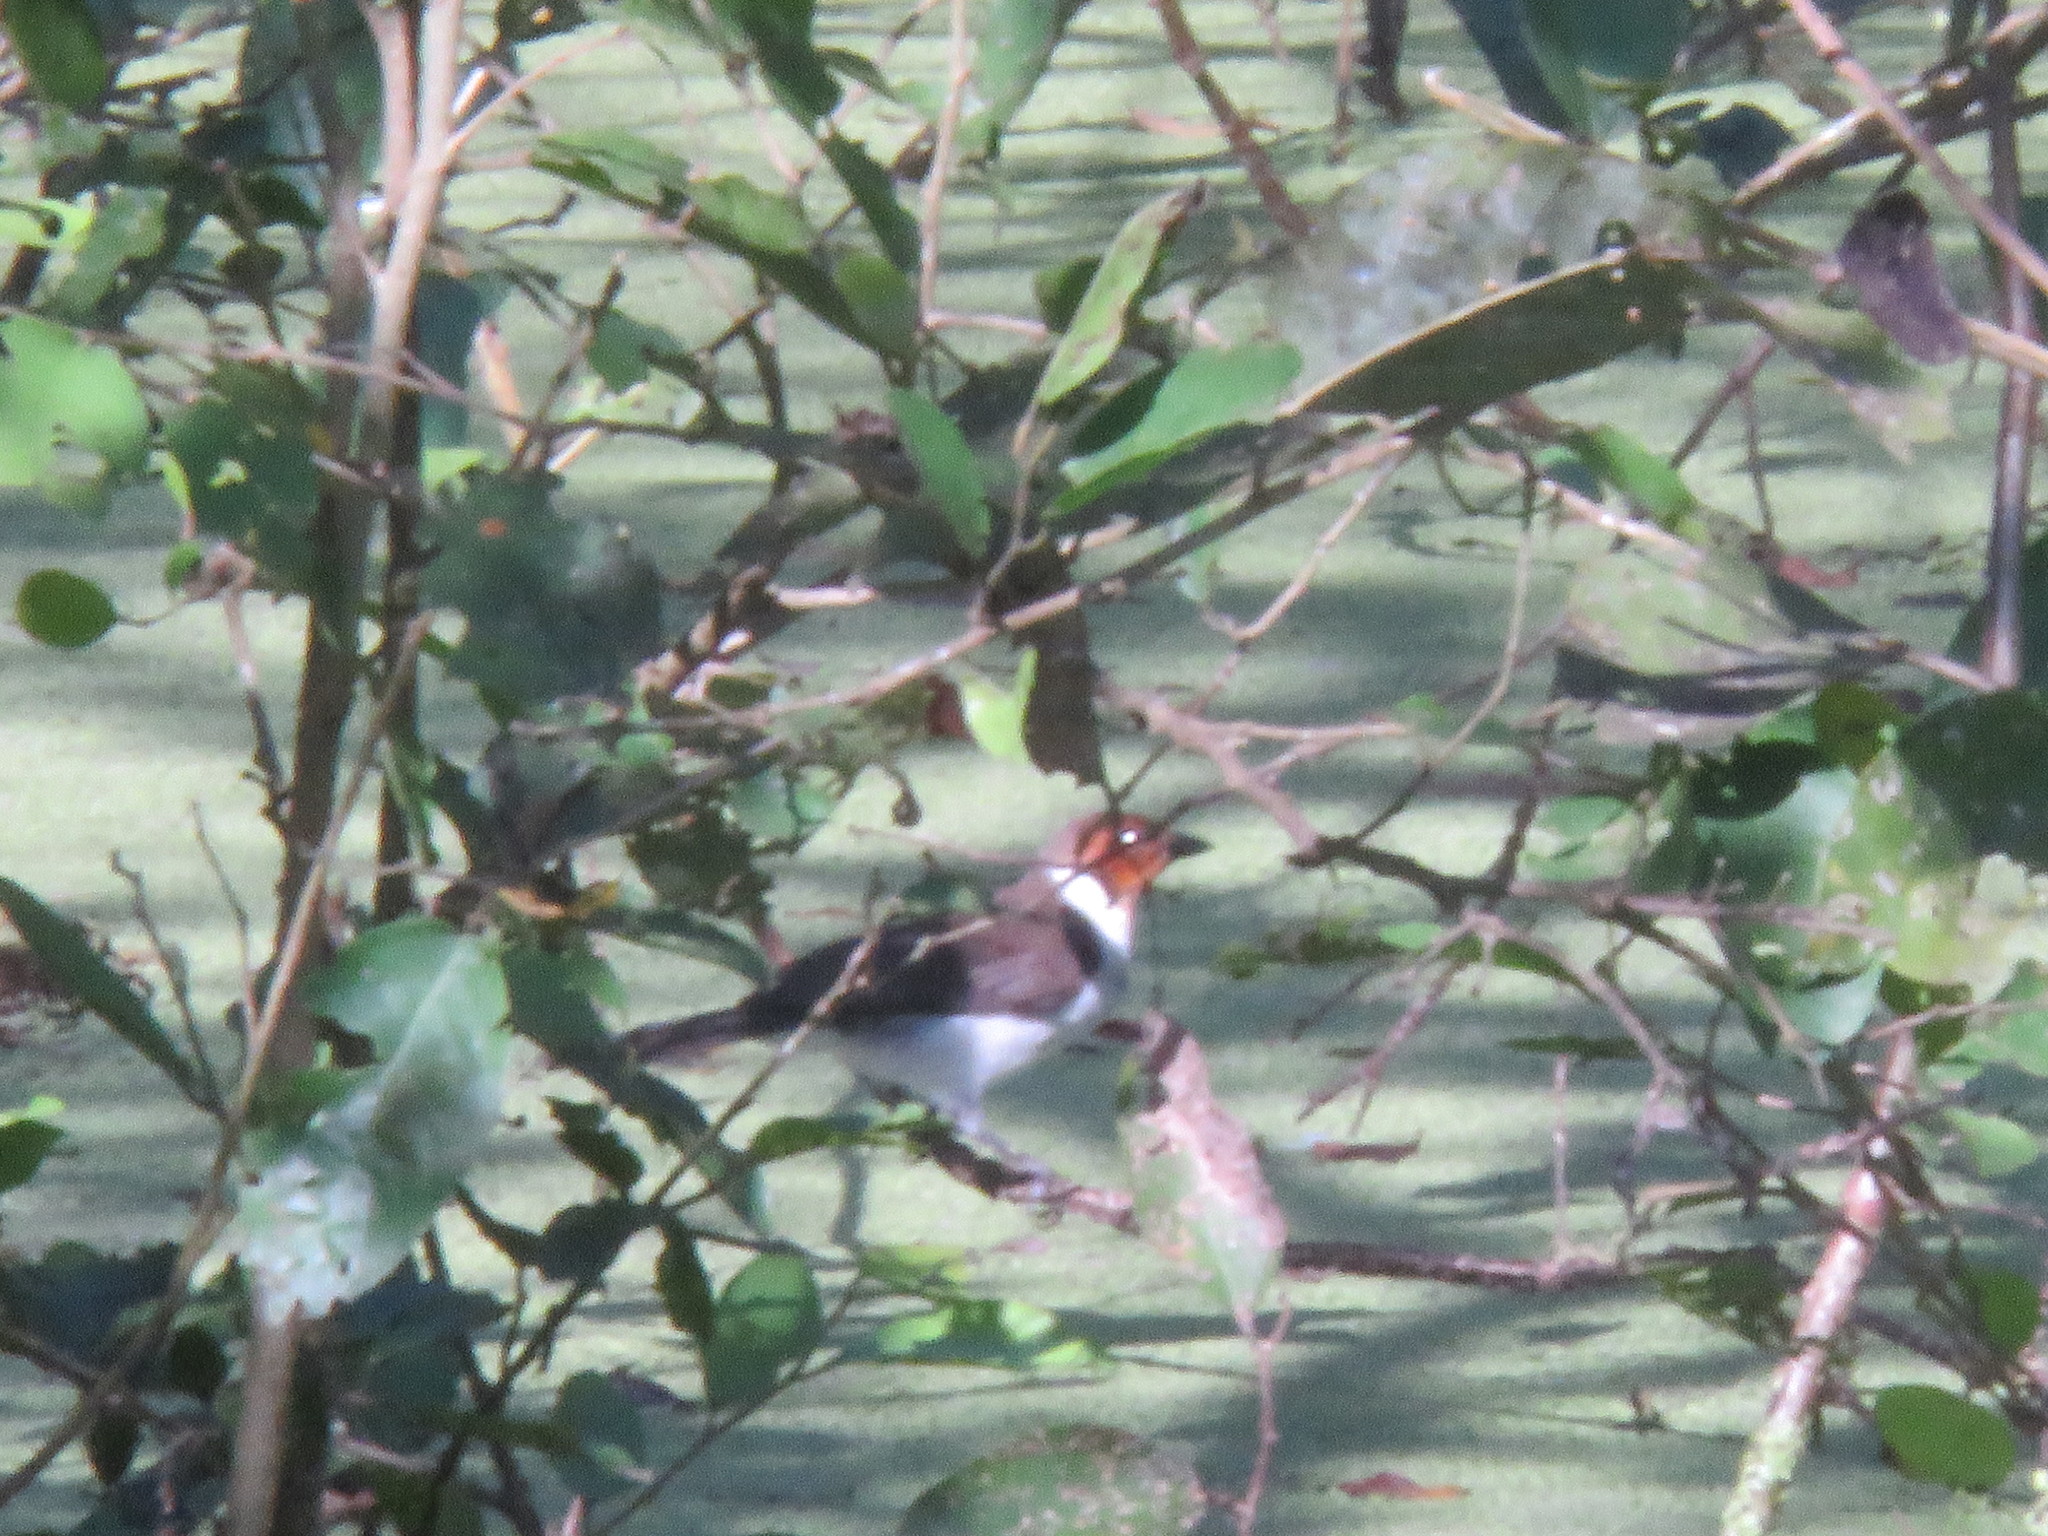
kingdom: Animalia
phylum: Chordata
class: Aves
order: Passeriformes
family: Thraupidae
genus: Paroaria
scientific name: Paroaria gularis
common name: Red-capped cardinal
